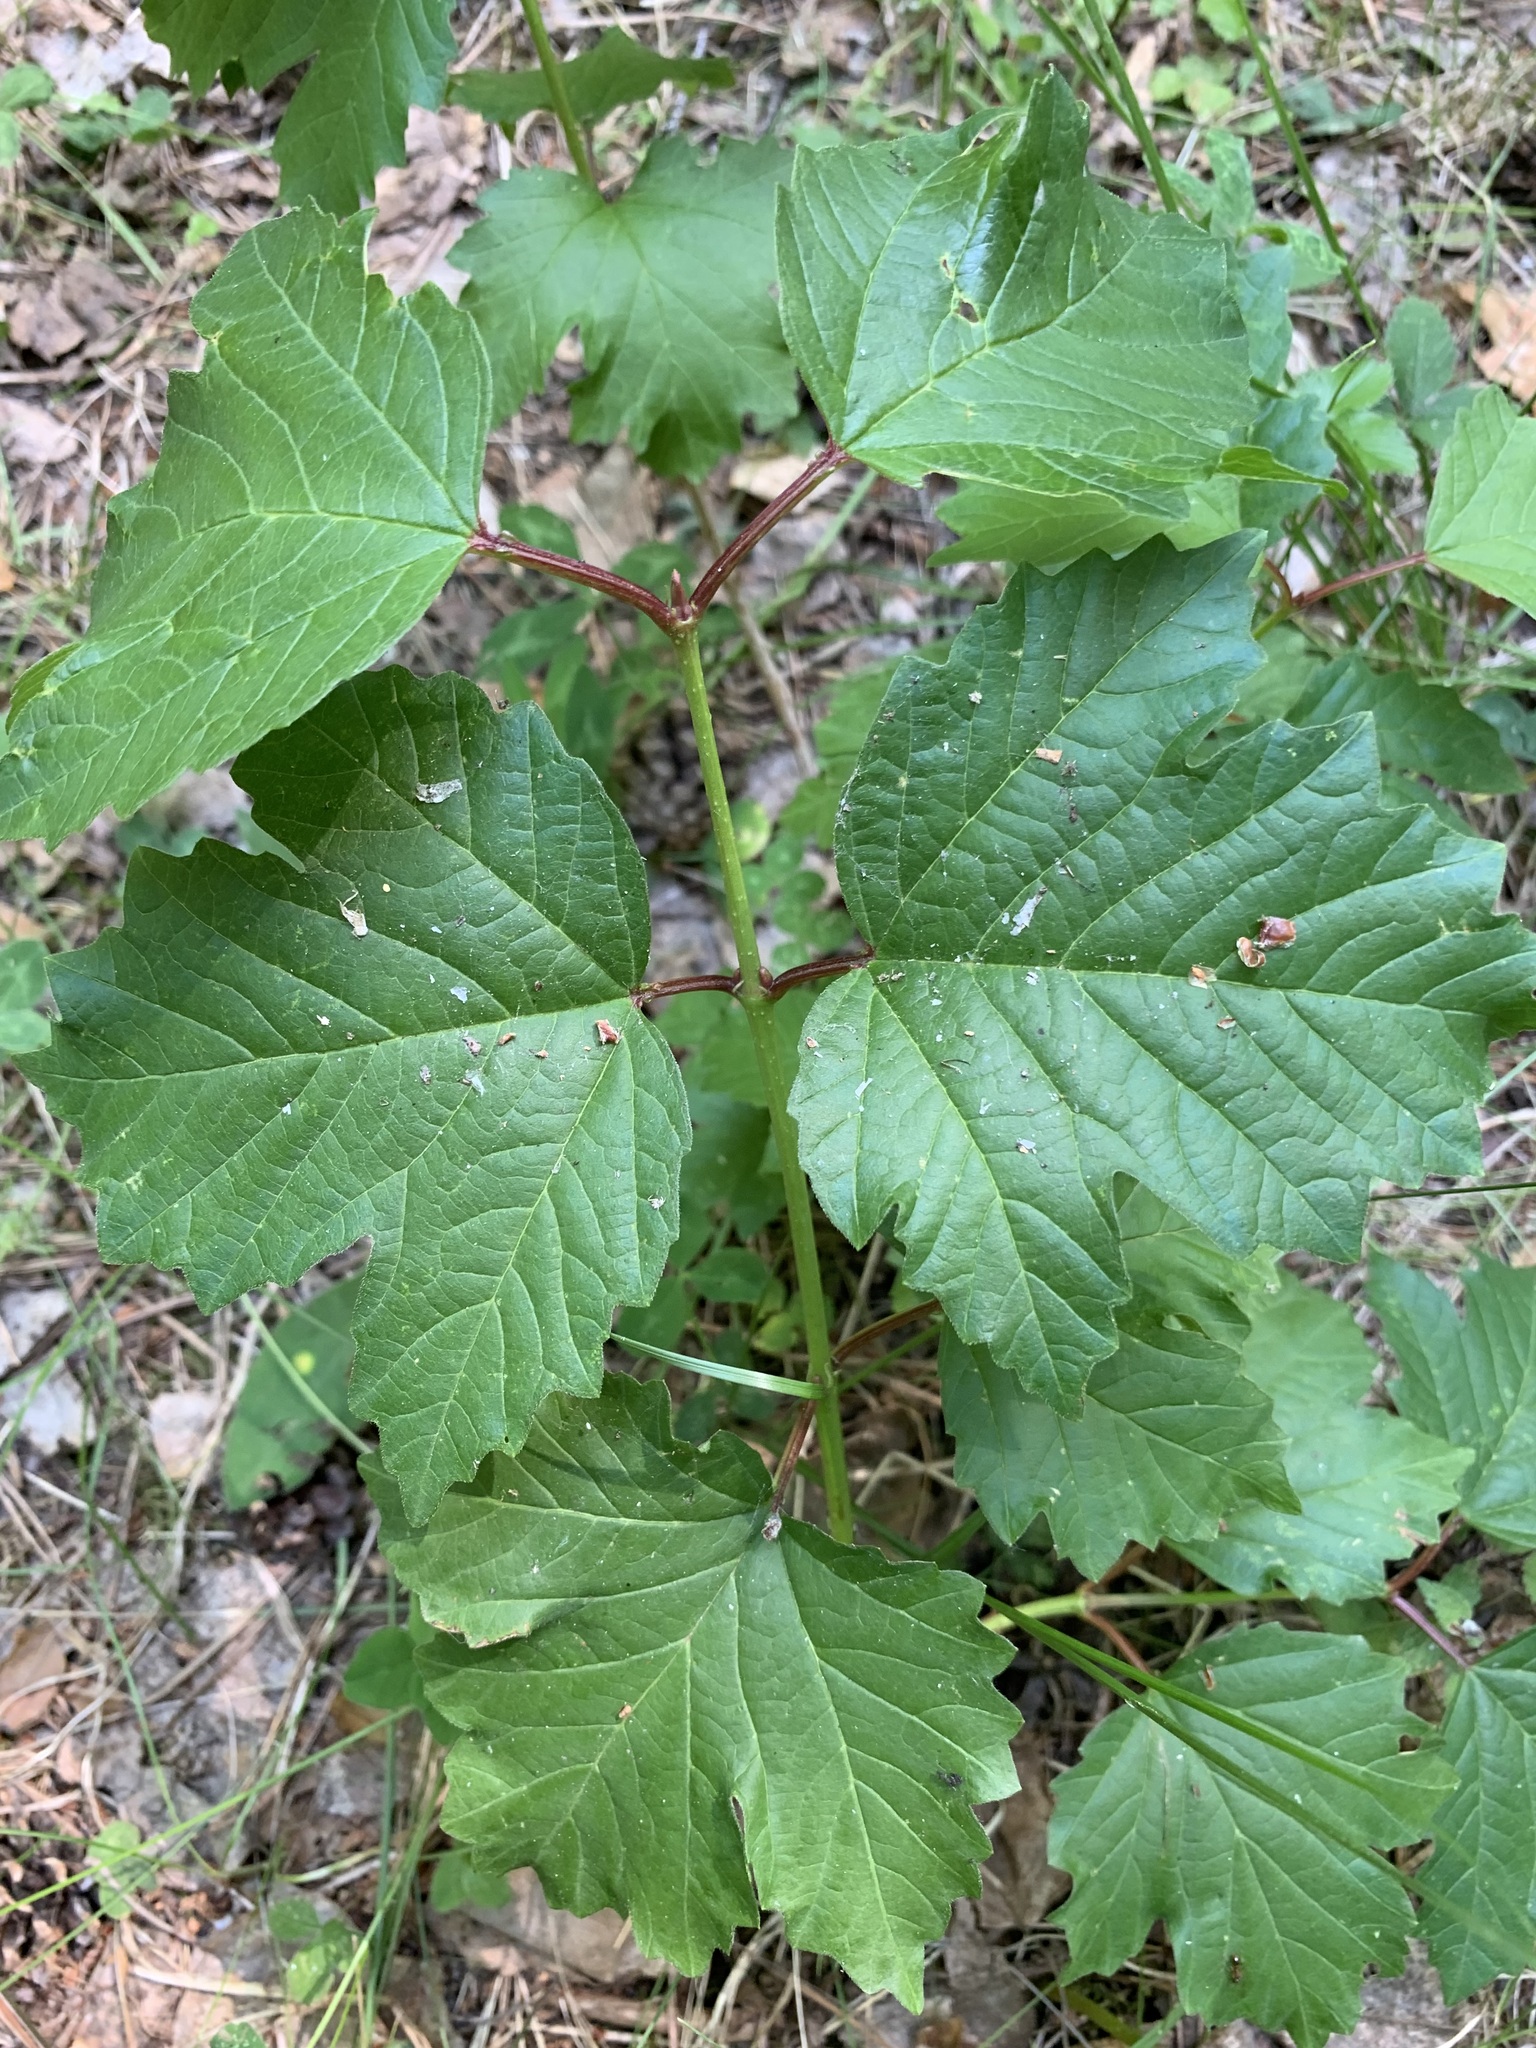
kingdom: Plantae
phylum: Tracheophyta
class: Magnoliopsida
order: Dipsacales
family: Viburnaceae
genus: Viburnum
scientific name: Viburnum opulus
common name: Guelder-rose
